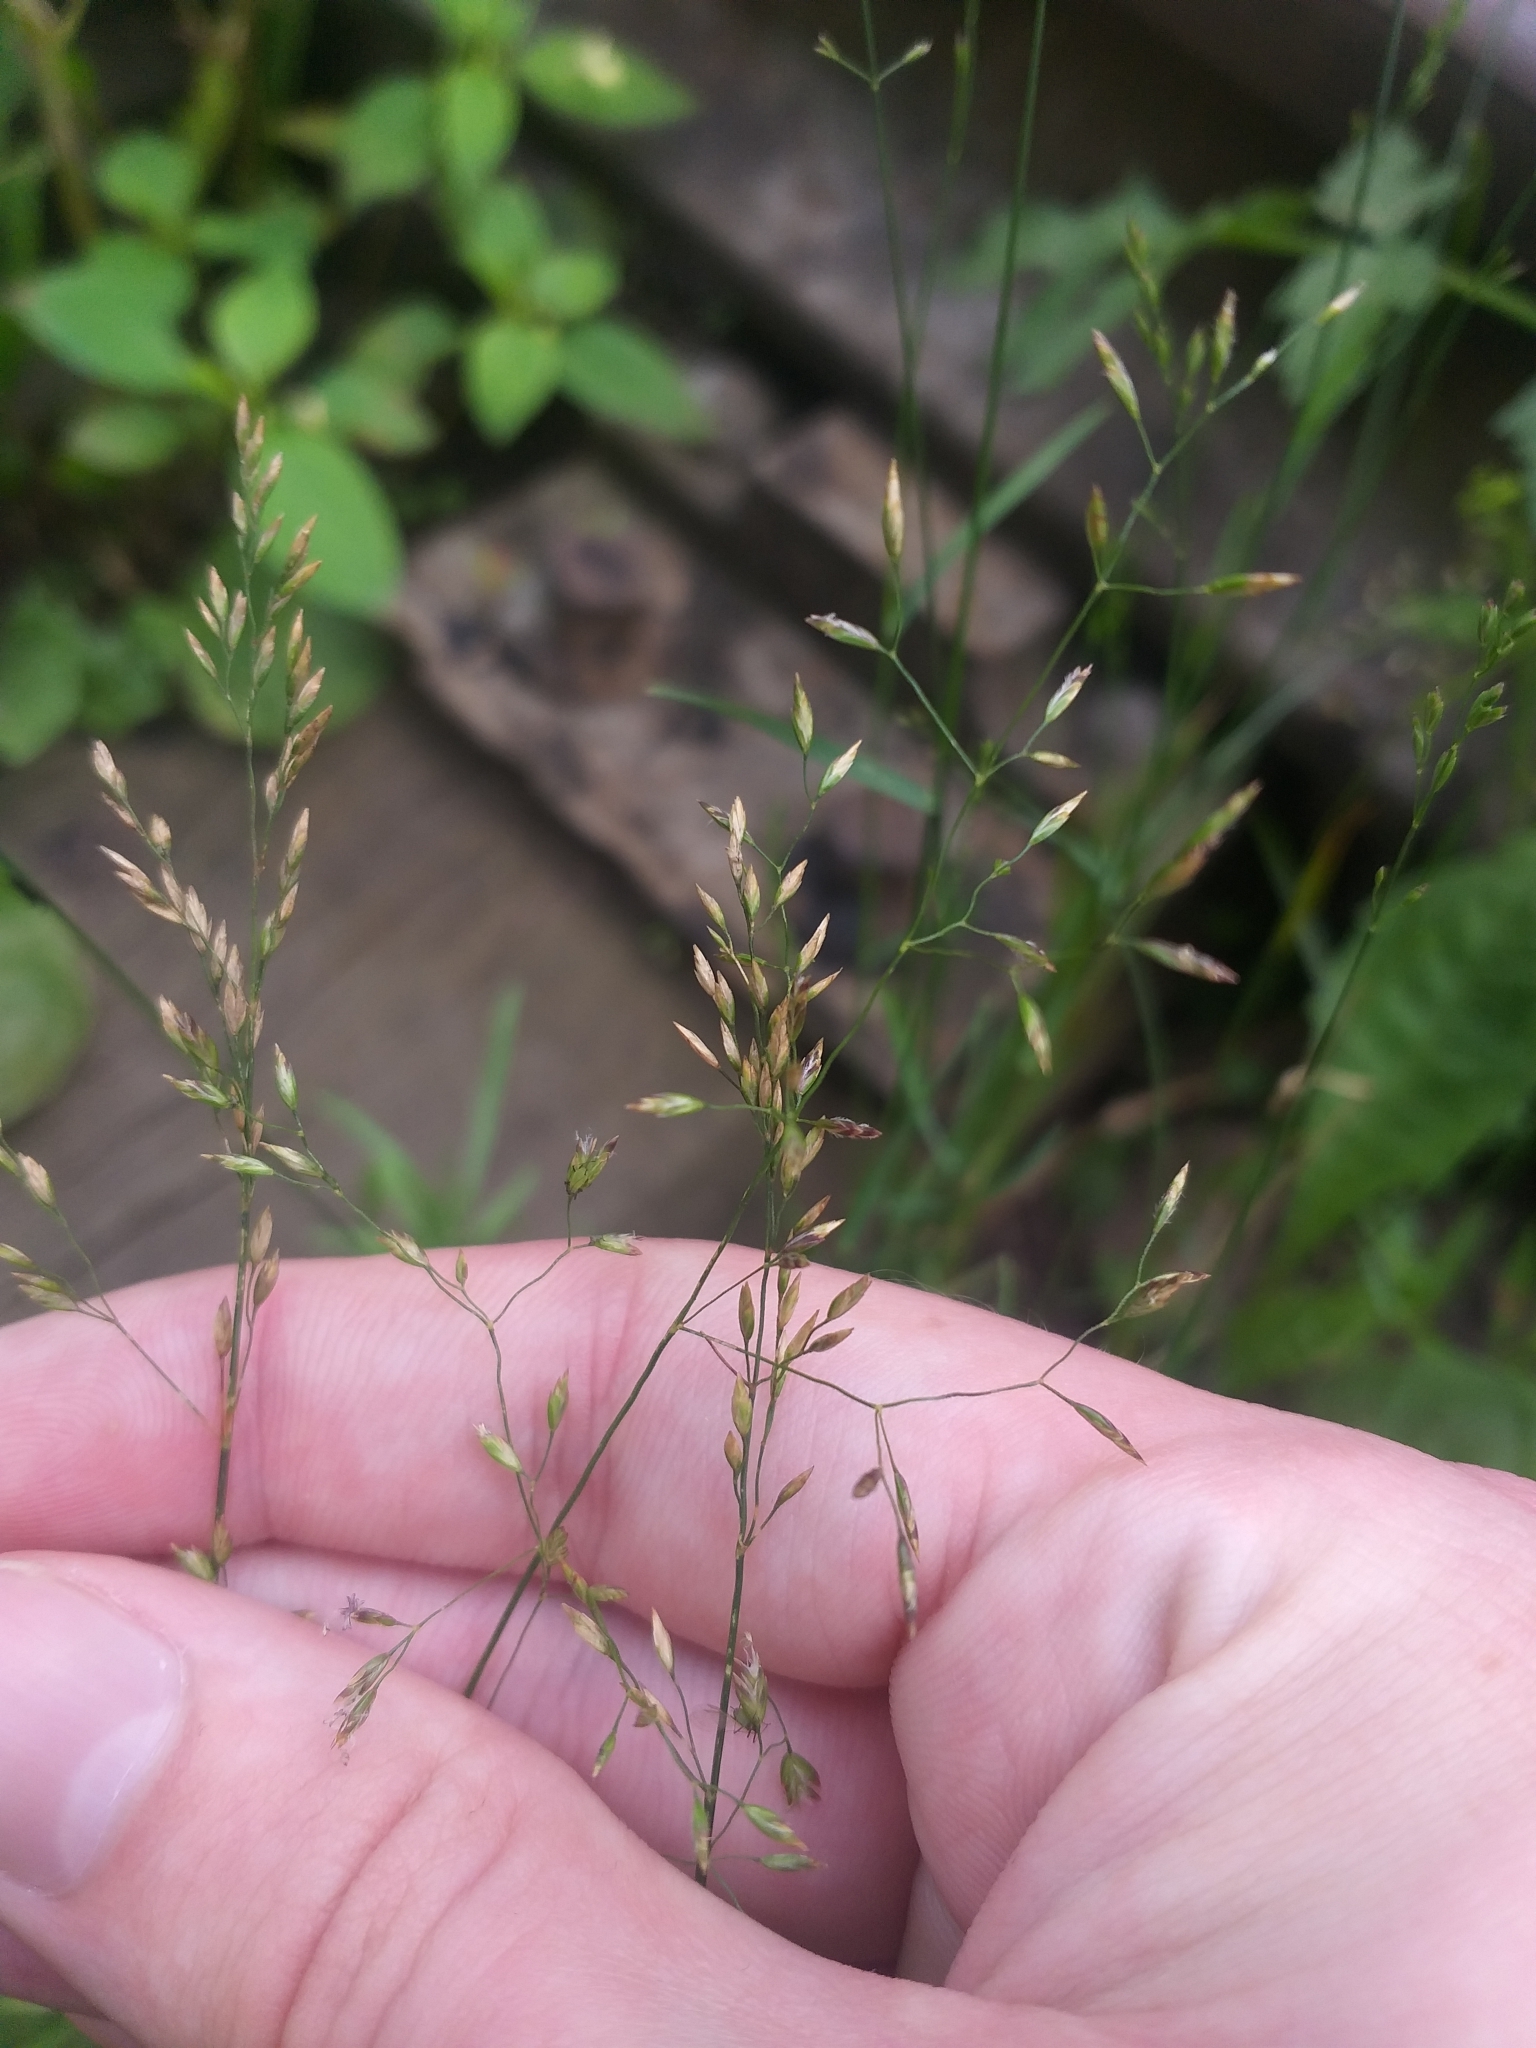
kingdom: Plantae
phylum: Tracheophyta
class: Liliopsida
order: Poales
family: Poaceae
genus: Poa
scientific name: Poa compressa
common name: Canada bluegrass
